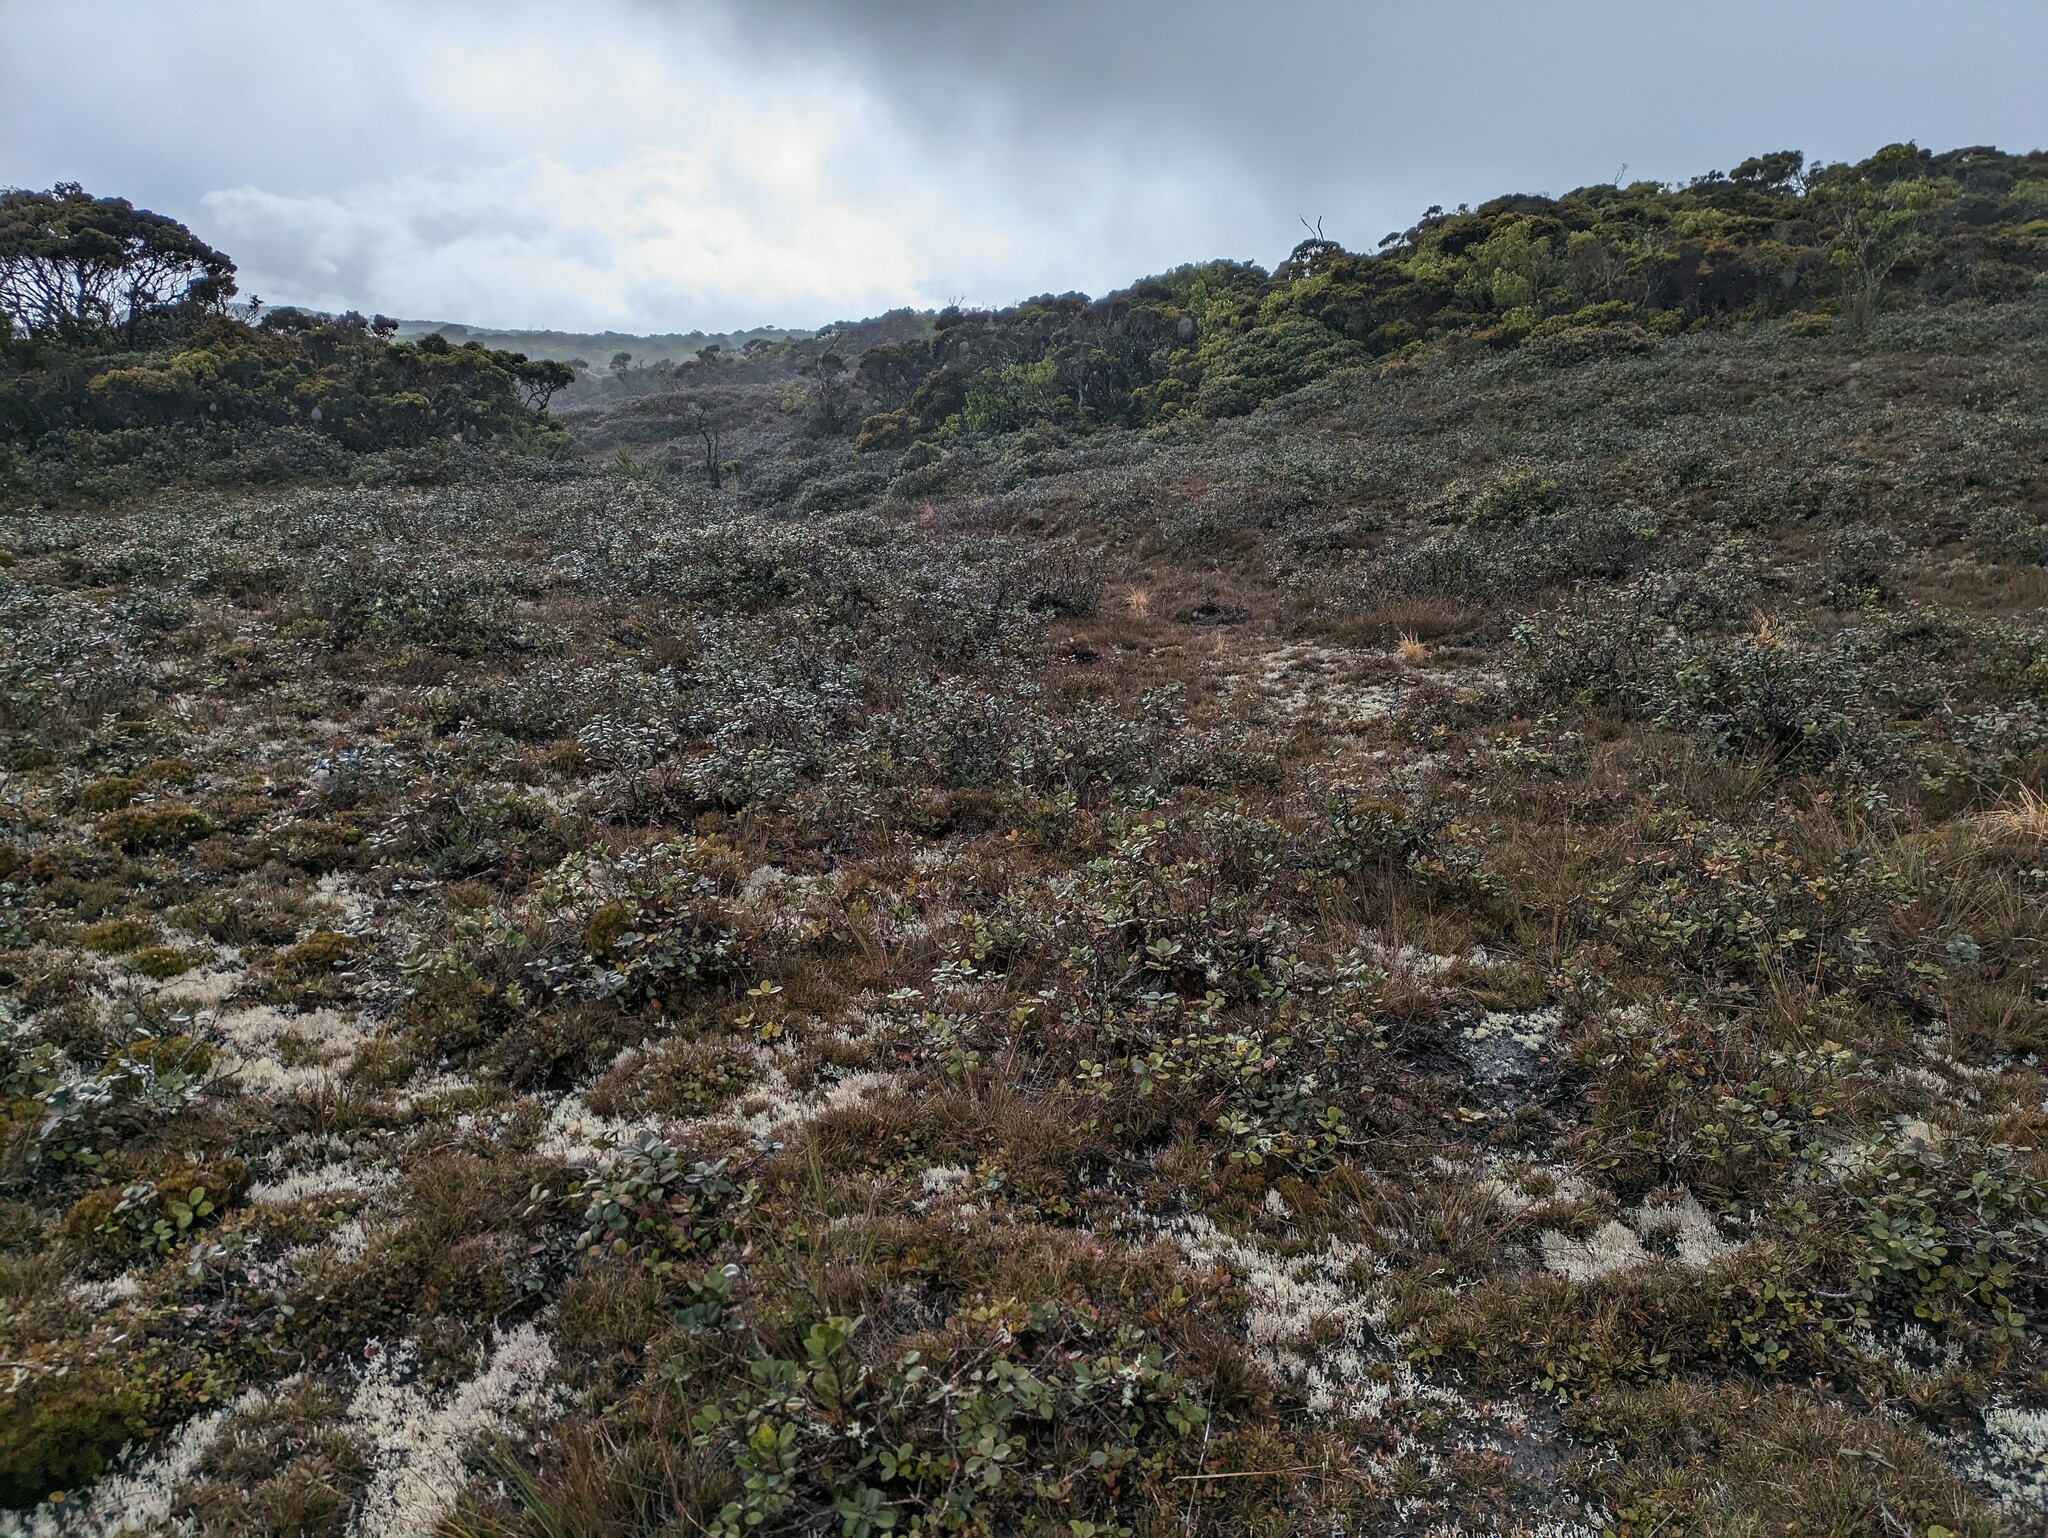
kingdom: Plantae
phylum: Tracheophyta
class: Magnoliopsida
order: Myrtales
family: Myrtaceae
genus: Metrosideros
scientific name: Metrosideros polymorpha
